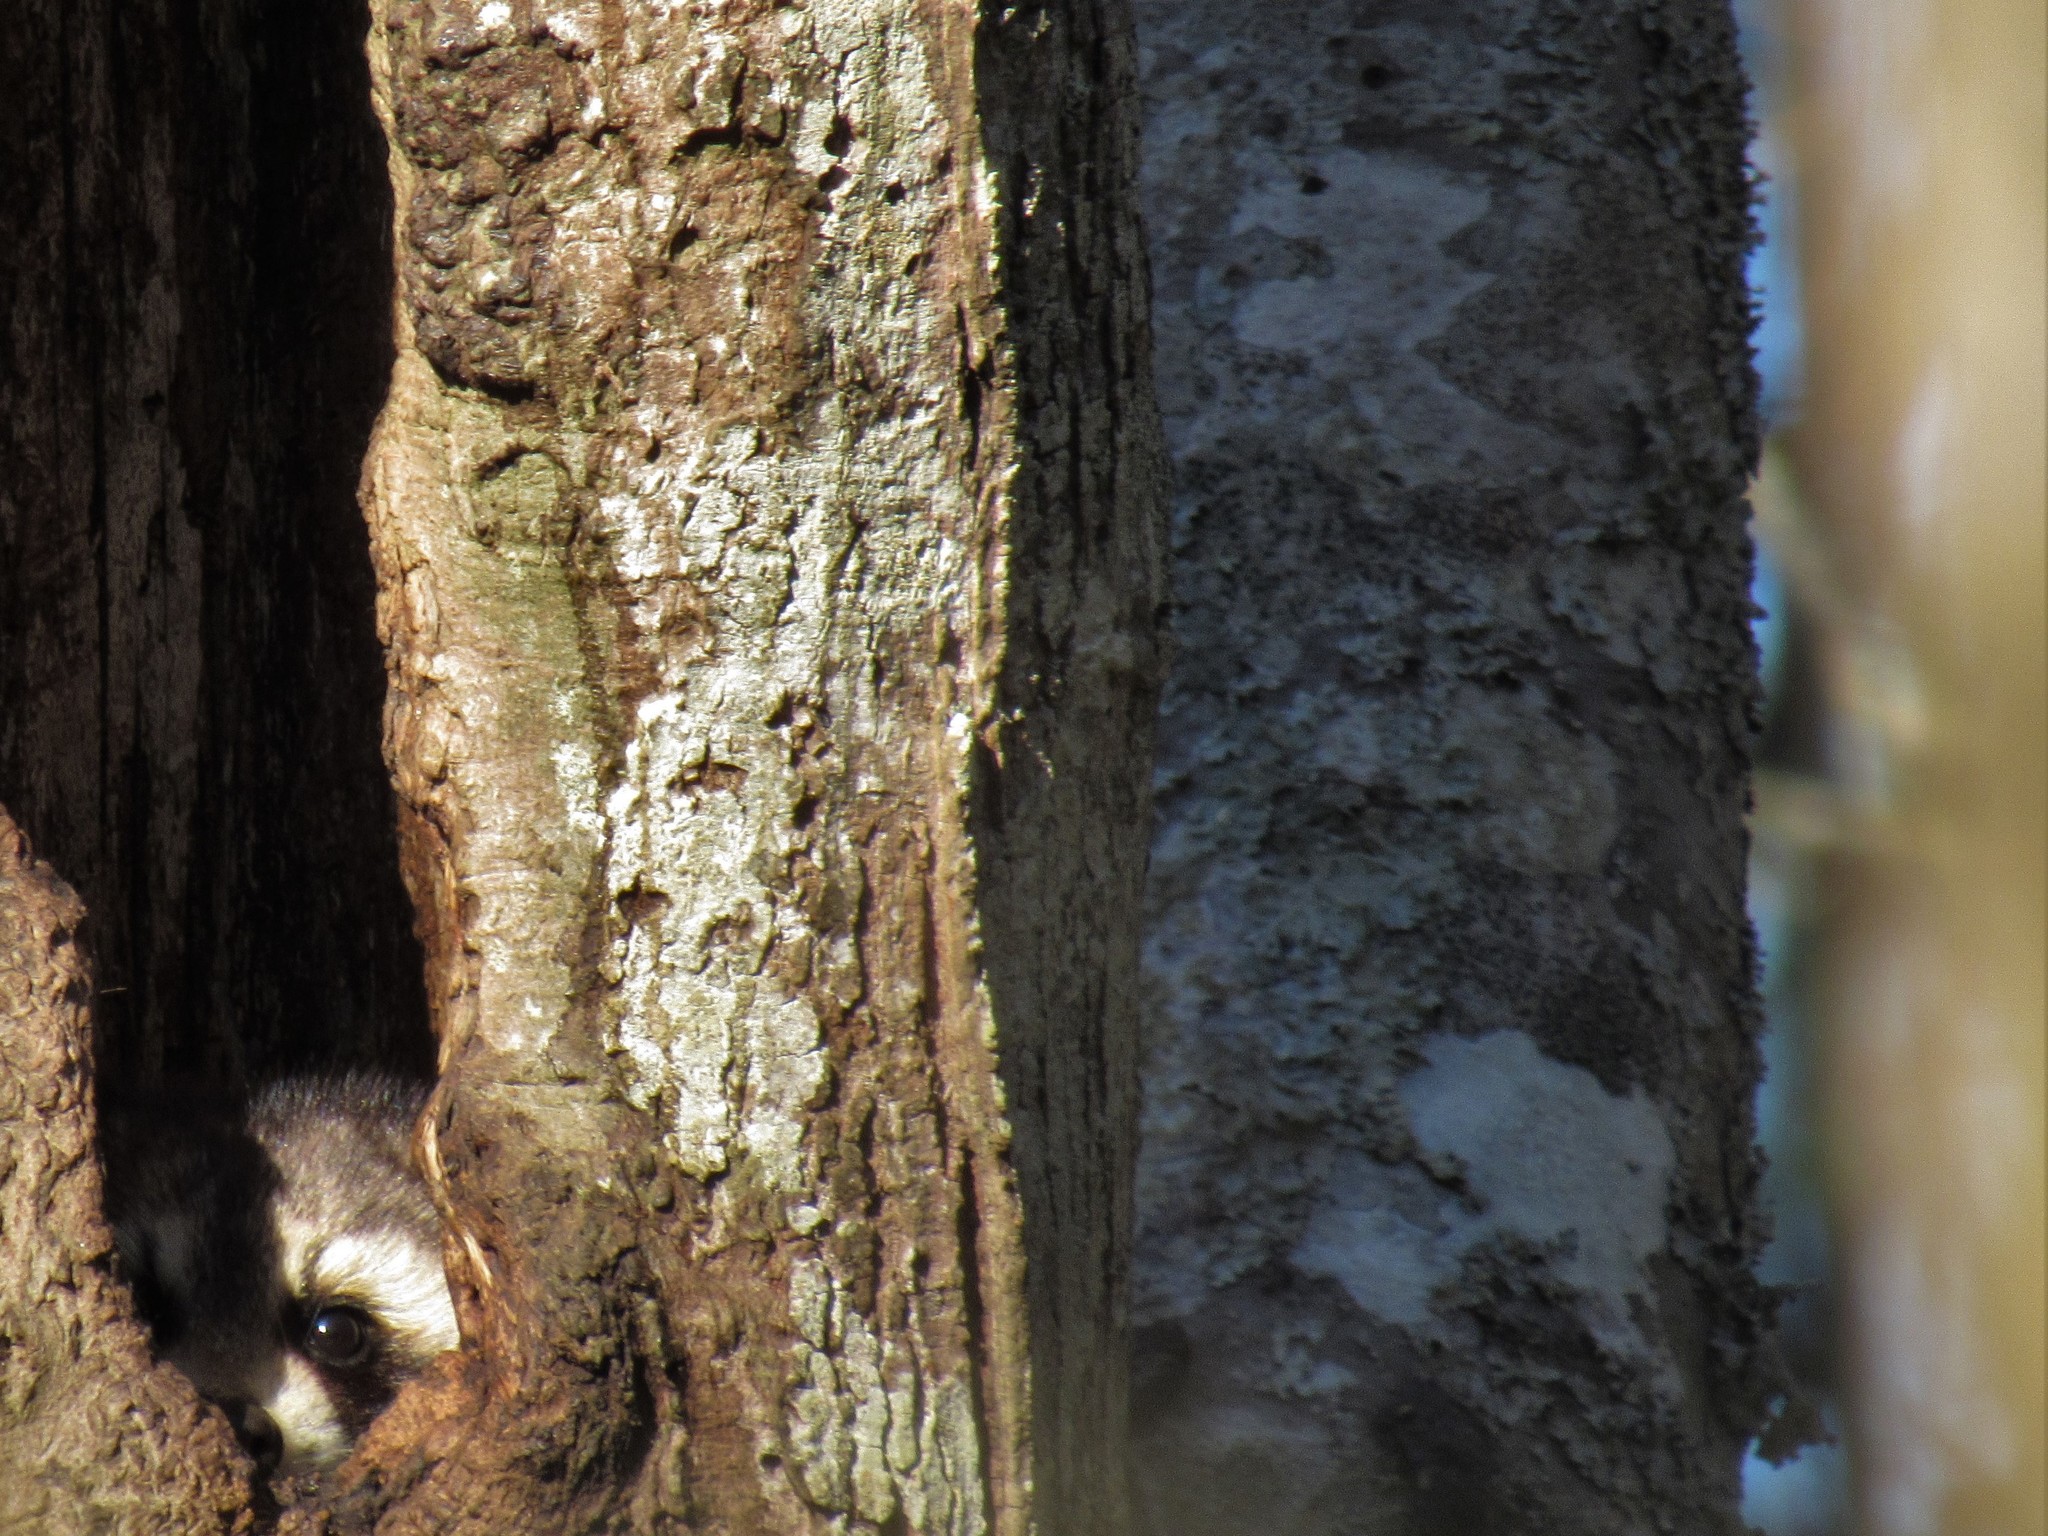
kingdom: Animalia
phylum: Chordata
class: Mammalia
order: Carnivora
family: Procyonidae
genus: Procyon
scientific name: Procyon lotor
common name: Raccoon
